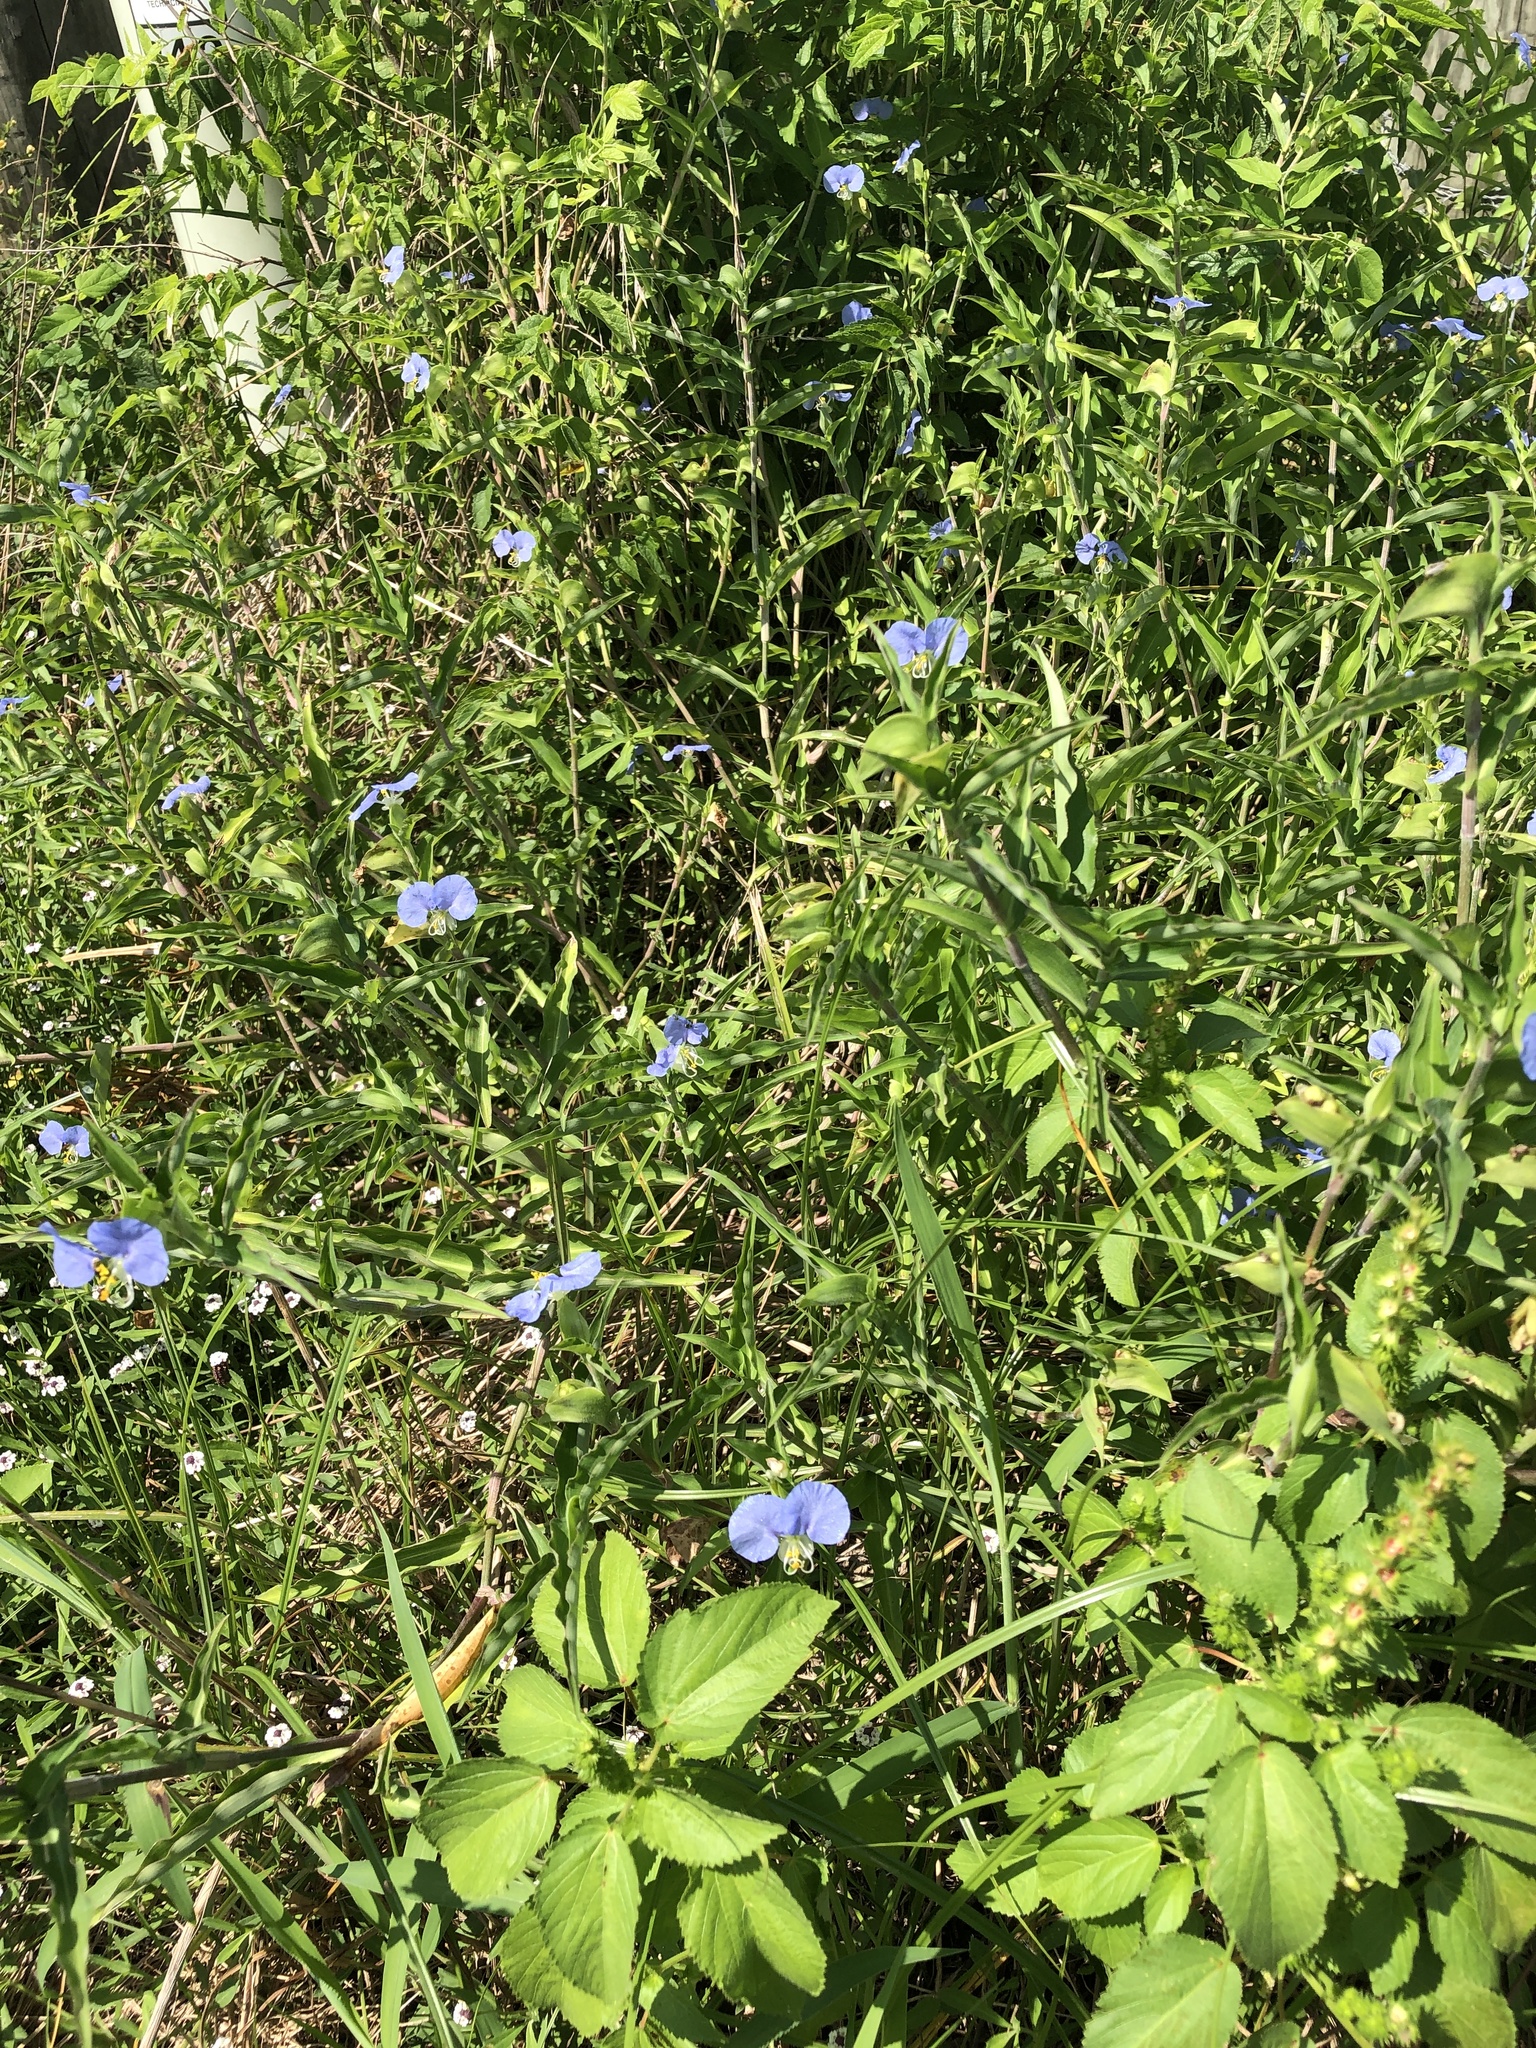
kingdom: Plantae
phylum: Tracheophyta
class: Liliopsida
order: Commelinales
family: Commelinaceae
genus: Commelina
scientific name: Commelina erecta
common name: Blousel blommetjie
